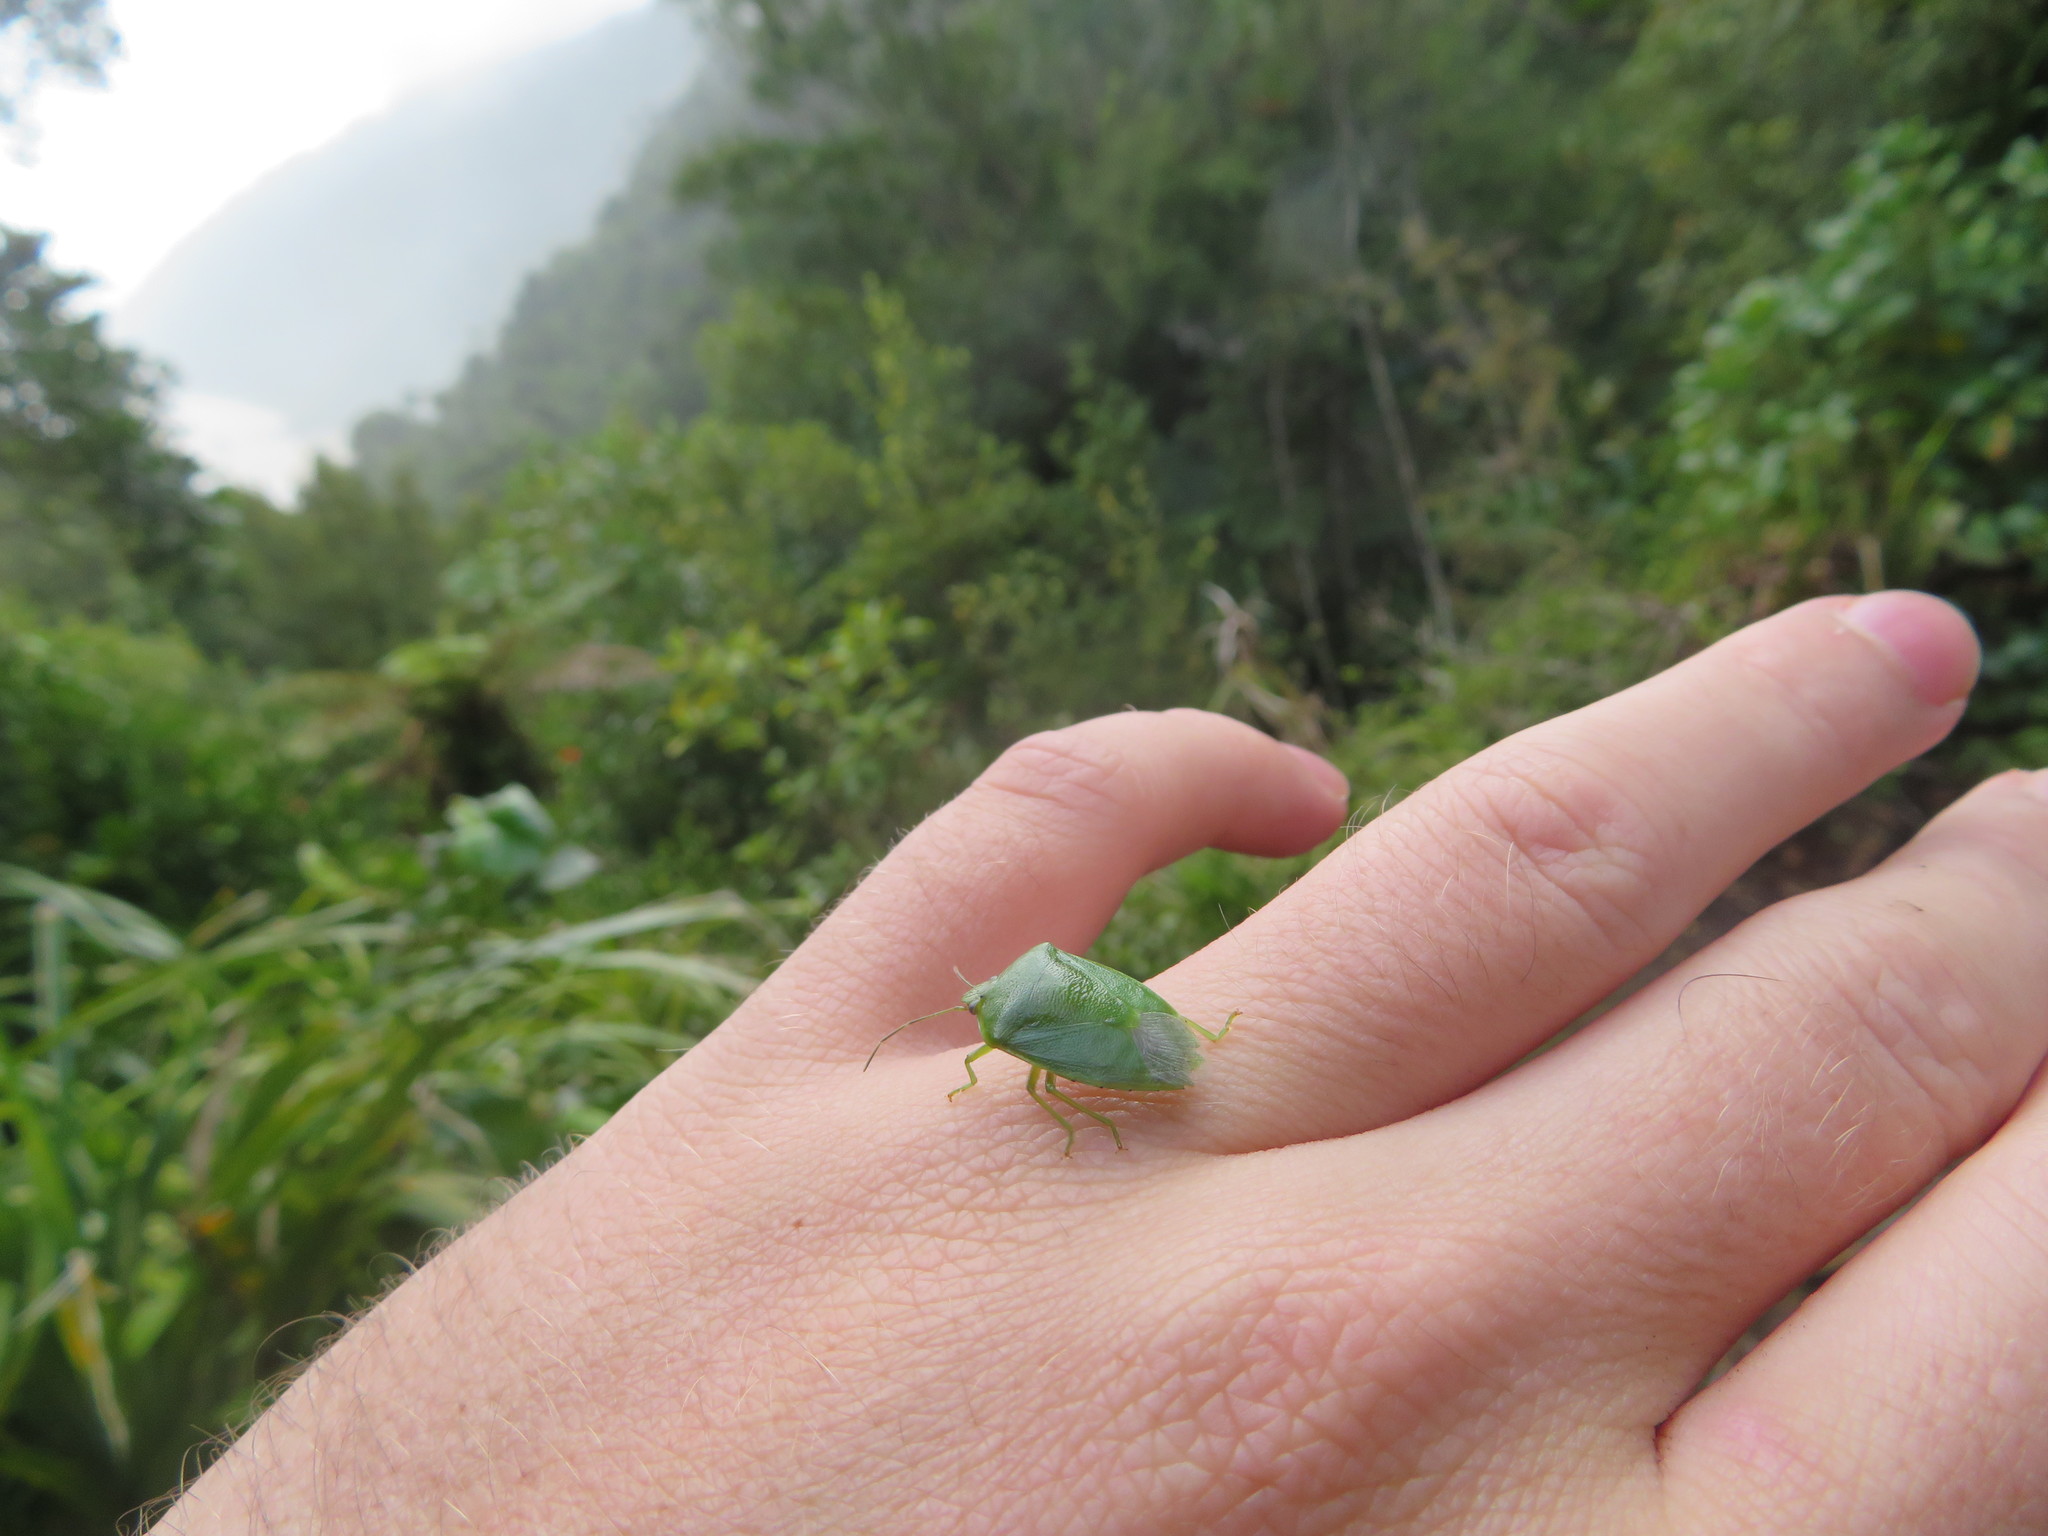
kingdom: Animalia
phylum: Arthropoda
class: Insecta
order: Hemiptera
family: Pentatomidae
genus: Glaucias
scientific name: Glaucias amyota
